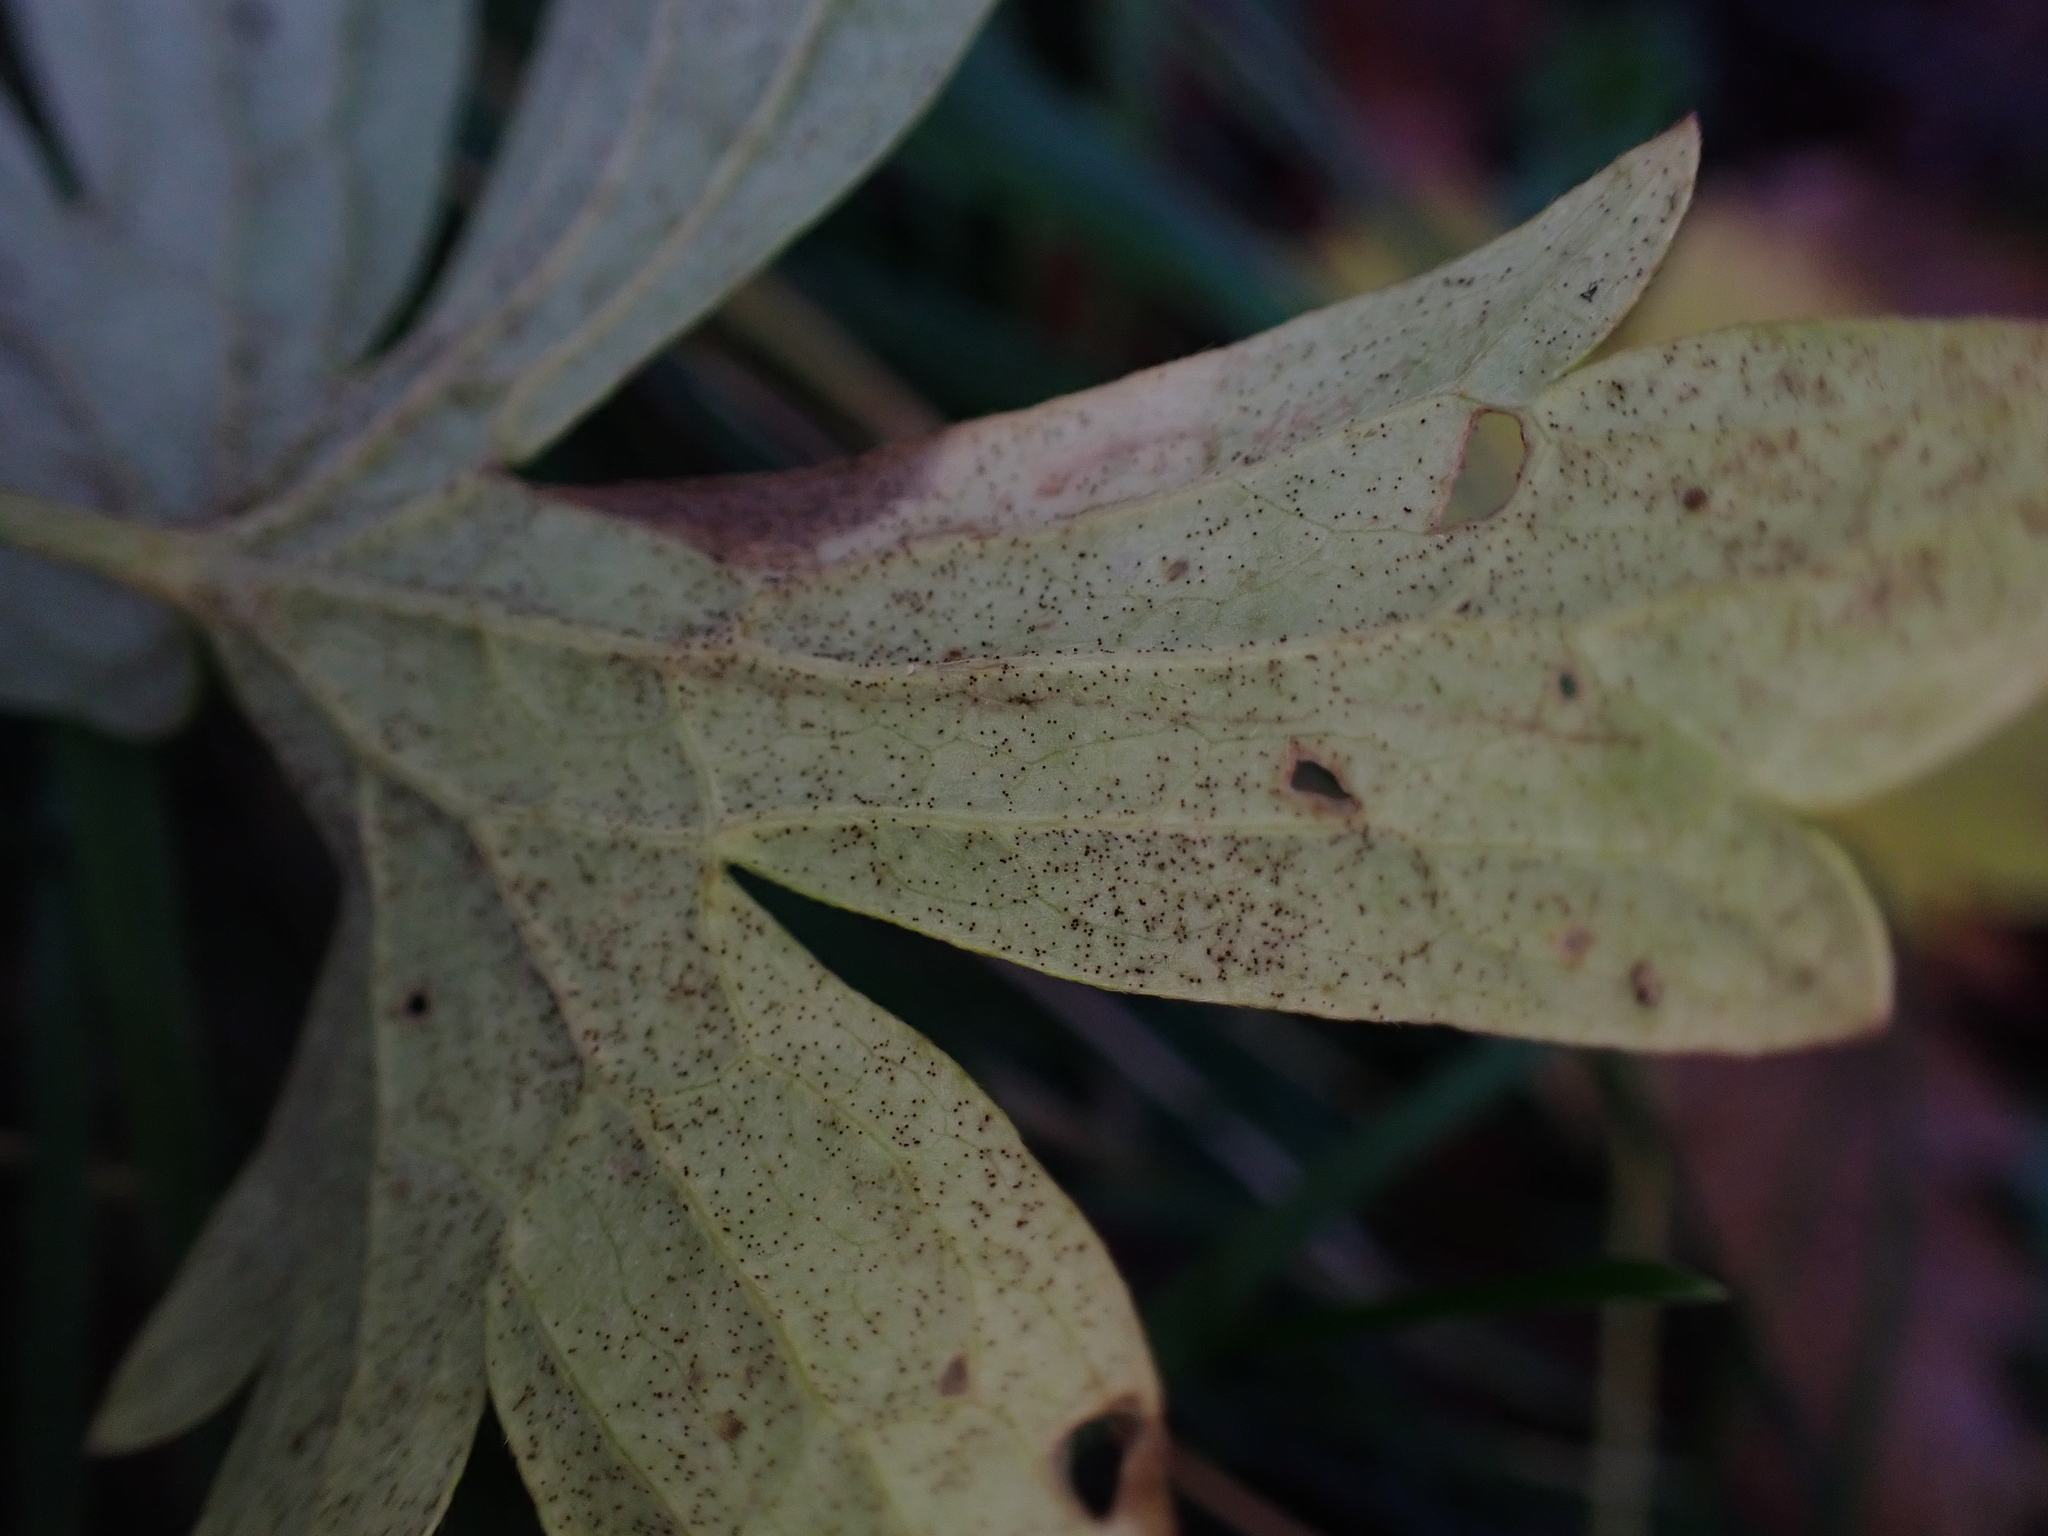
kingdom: Fungi
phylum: Ascomycota
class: Leotiomycetes
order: Helotiales
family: Erysiphaceae
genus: Erysiphe
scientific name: Erysiphe aquilegiae
